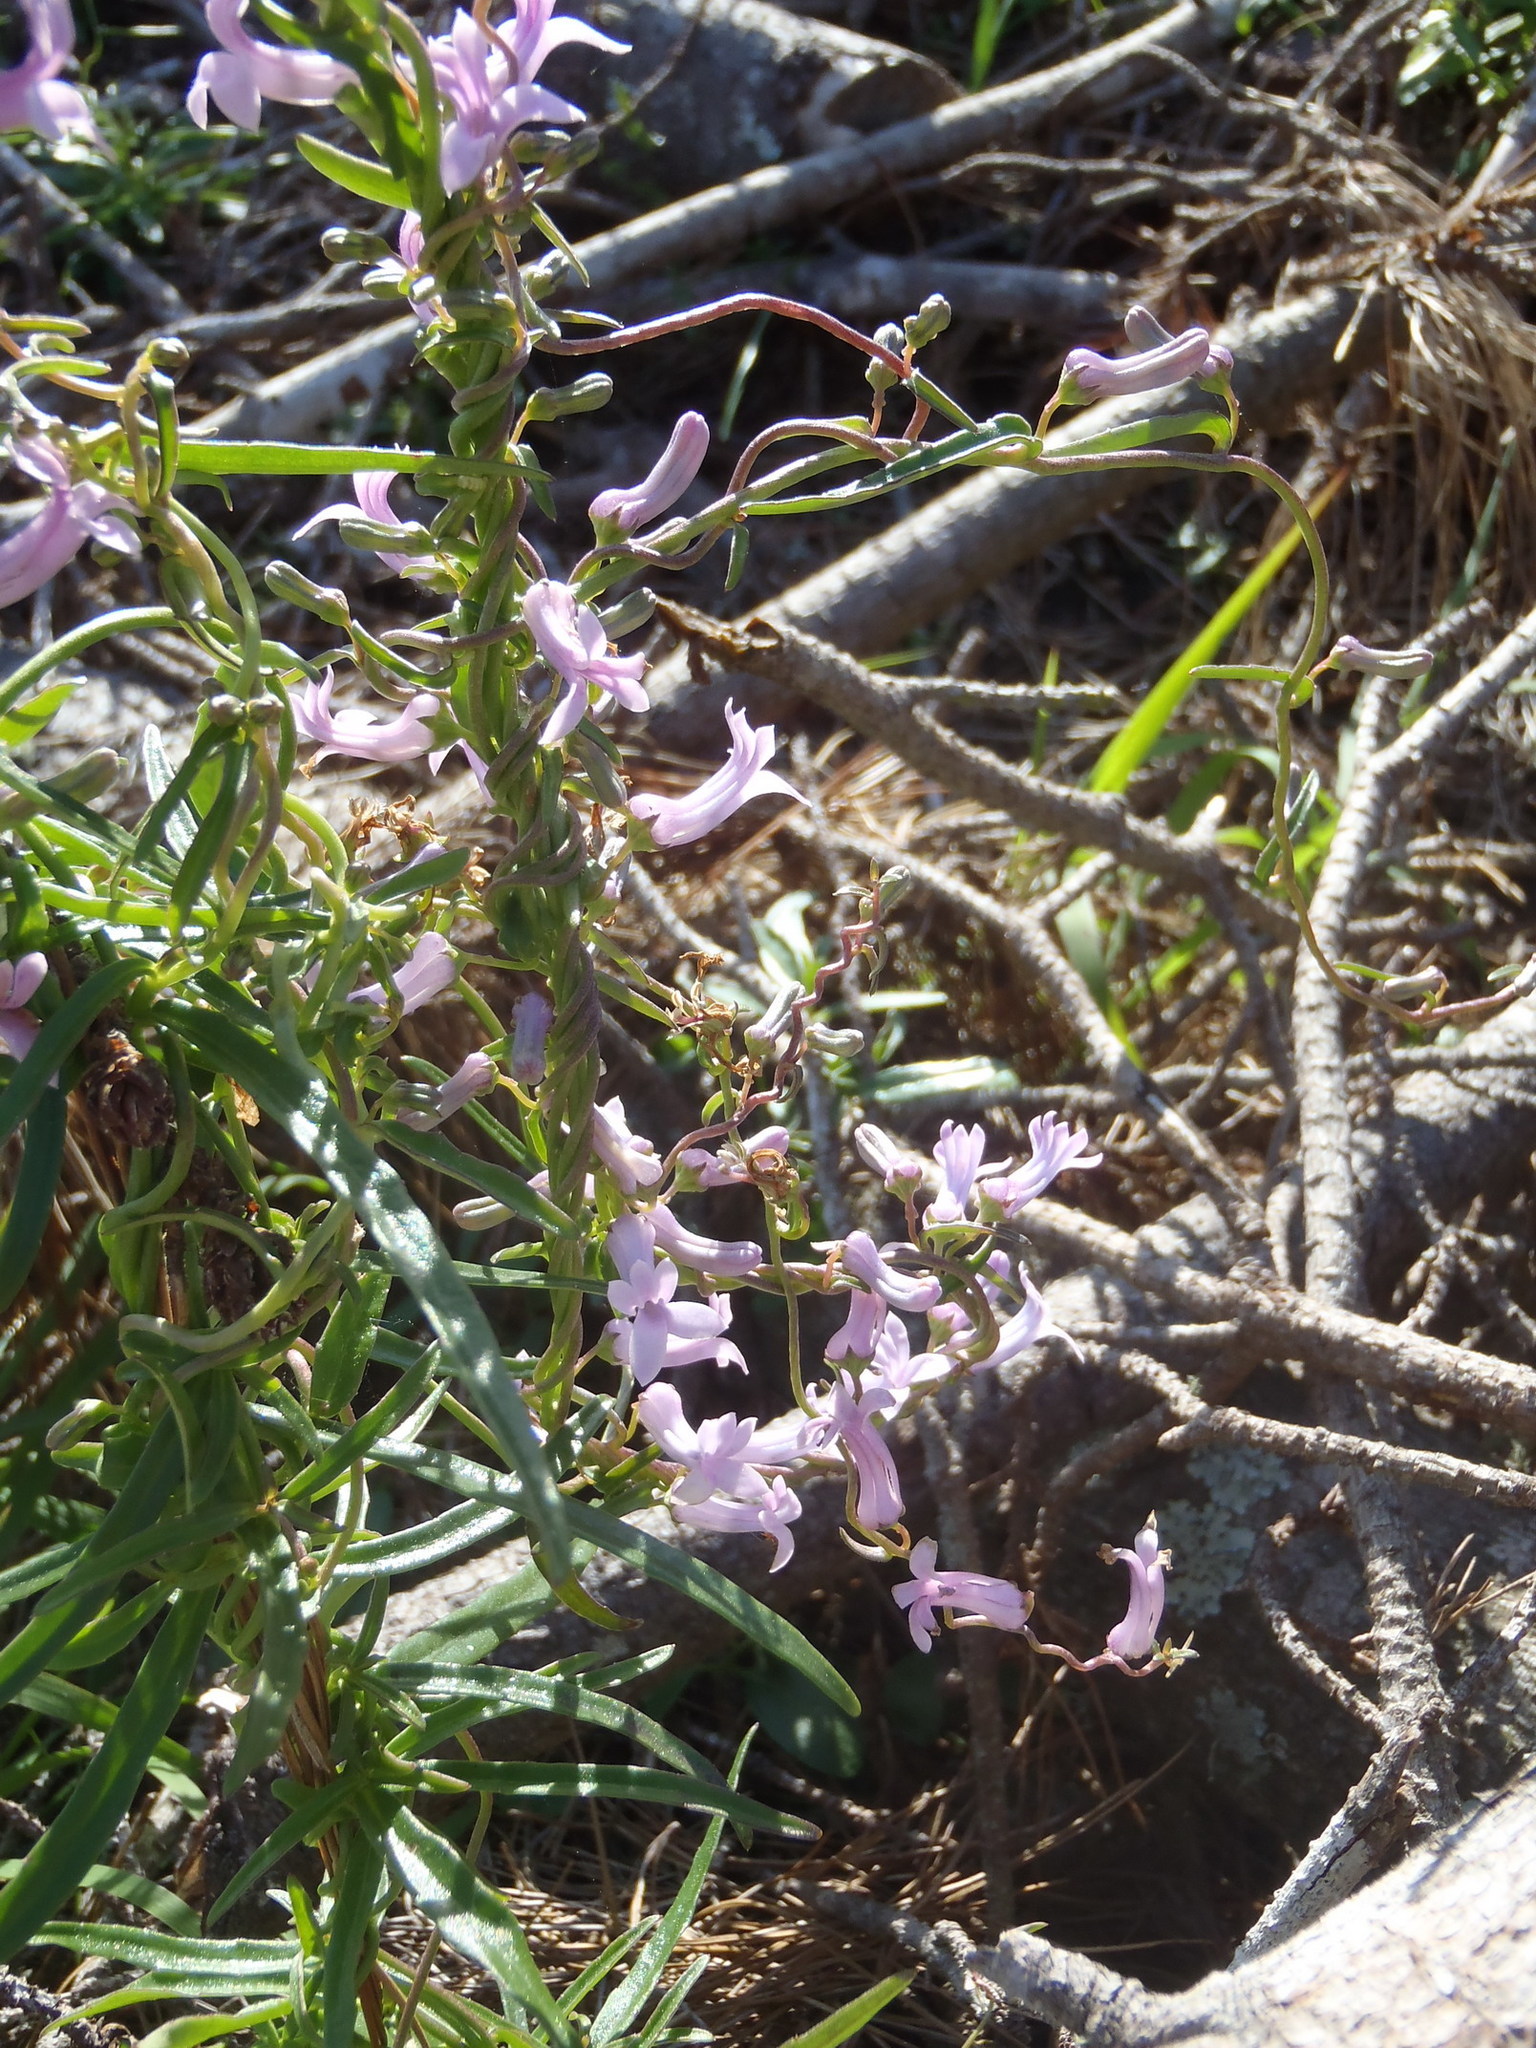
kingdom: Plantae
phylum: Tracheophyta
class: Magnoliopsida
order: Asterales
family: Campanulaceae
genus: Cyphia
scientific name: Cyphia digitata
